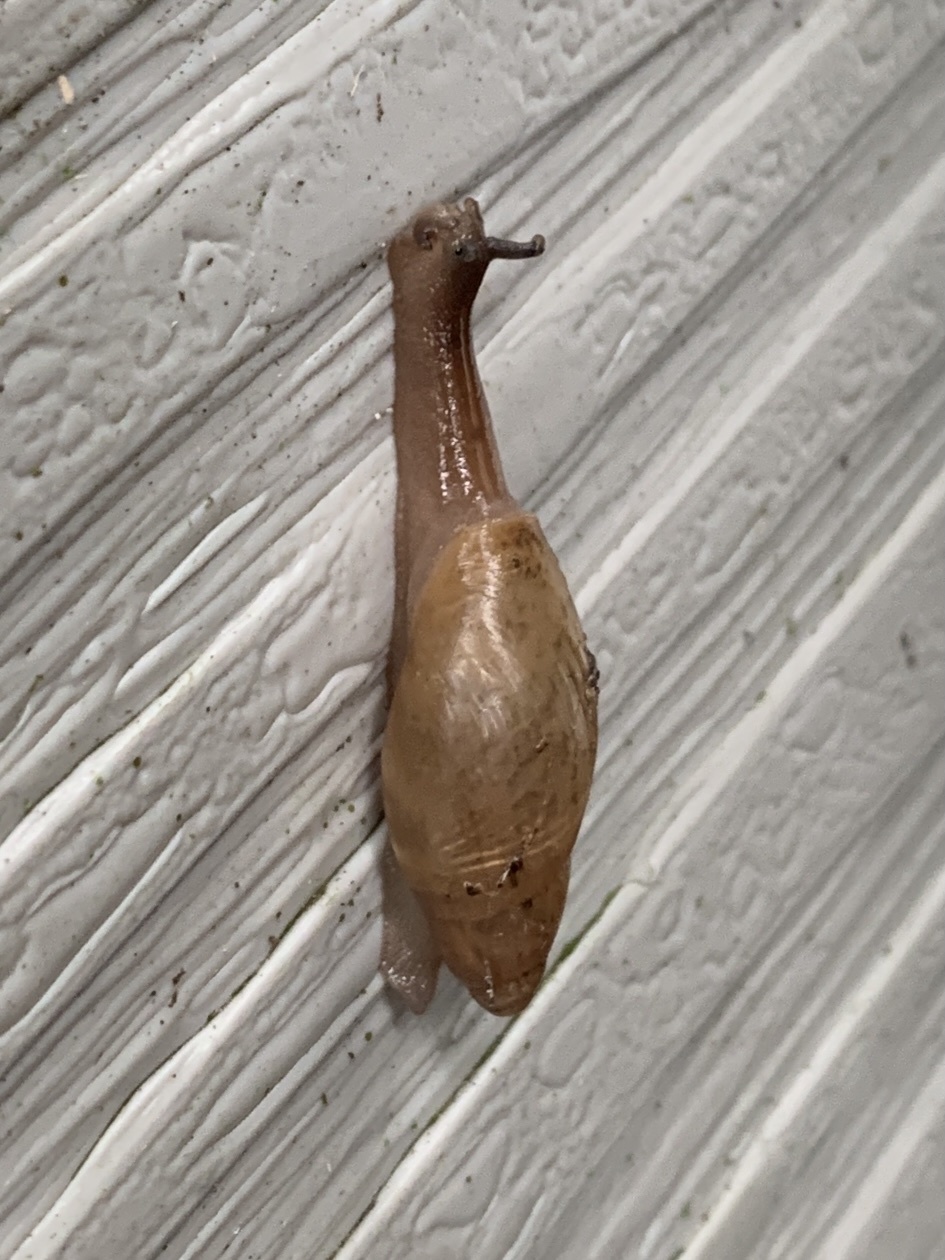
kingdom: Animalia
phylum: Mollusca
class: Gastropoda
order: Stylommatophora
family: Spiraxidae
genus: Euglandina
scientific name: Euglandina rosea
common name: Rosy wolfsnail
